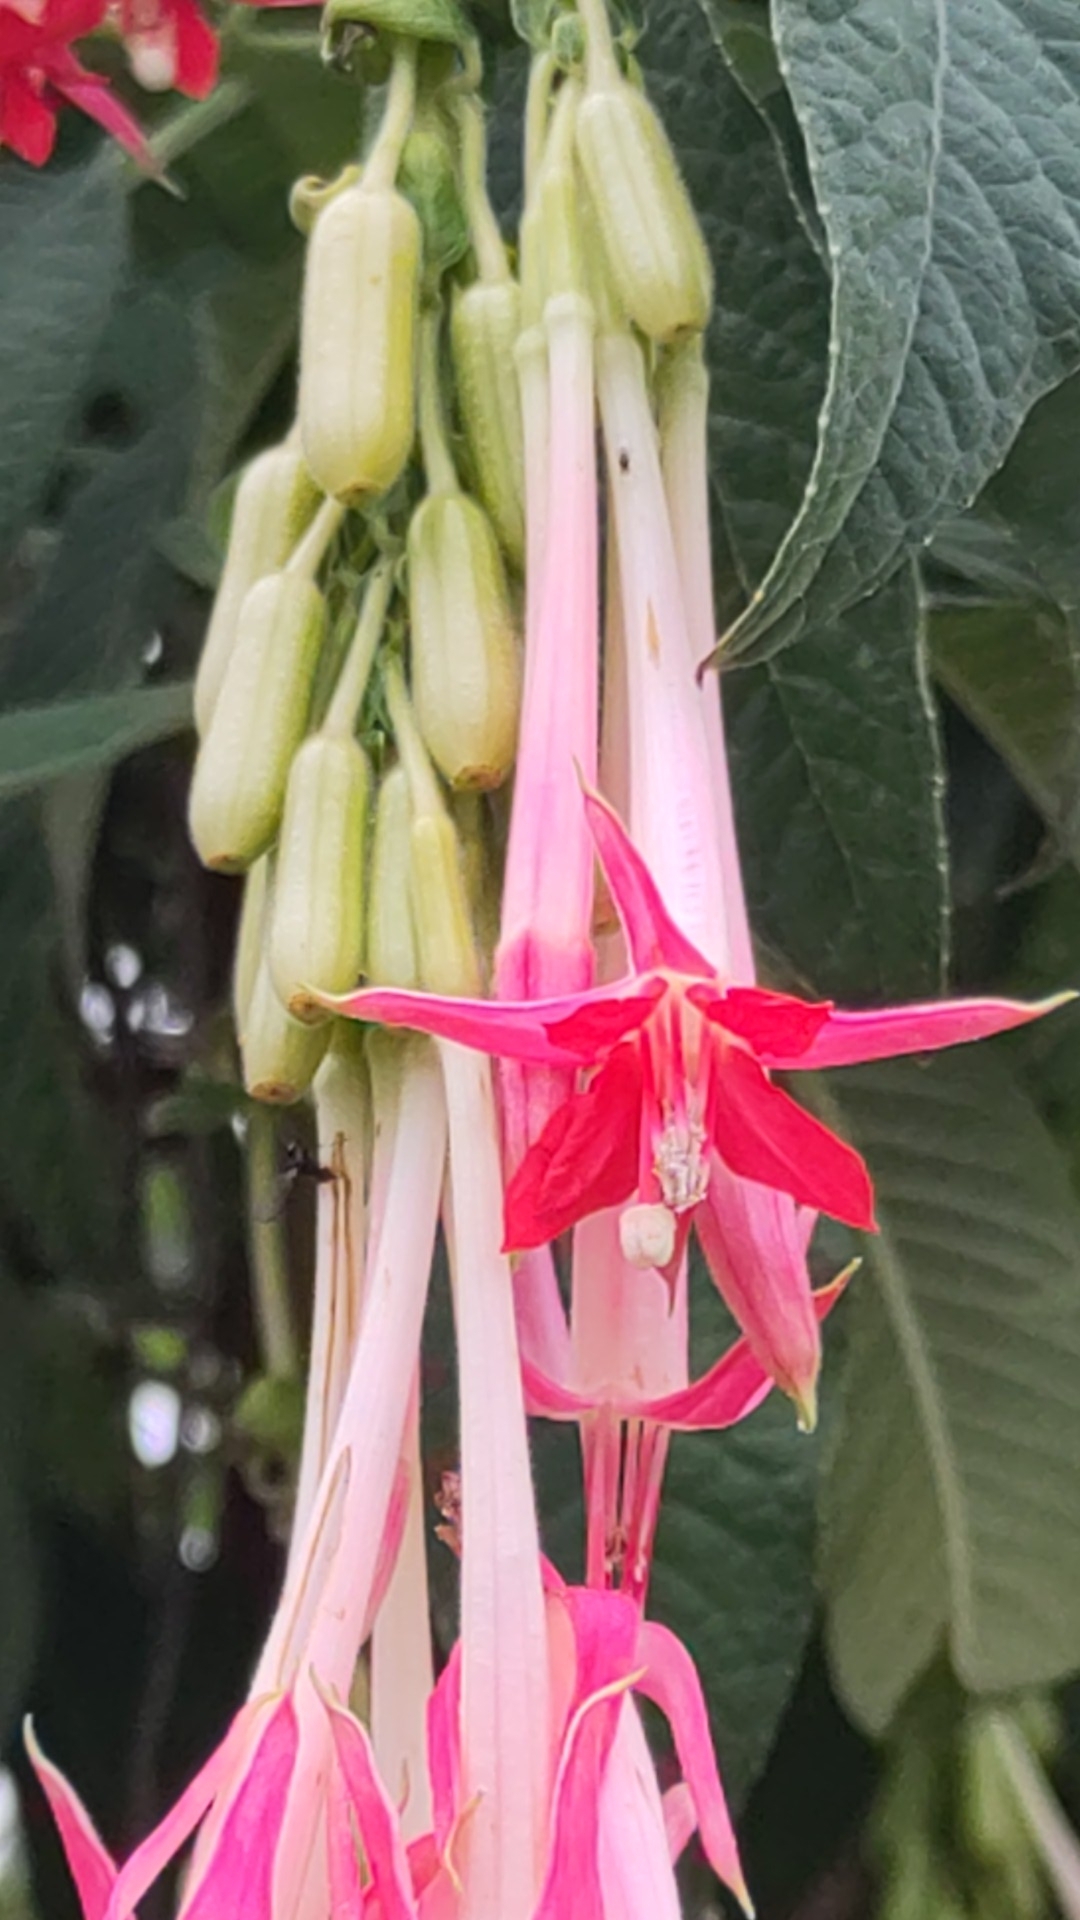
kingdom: Plantae
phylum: Tracheophyta
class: Magnoliopsida
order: Myrtales
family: Onagraceae
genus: Fuchsia
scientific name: Fuchsia boliviana
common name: Bolivian fuchsia
